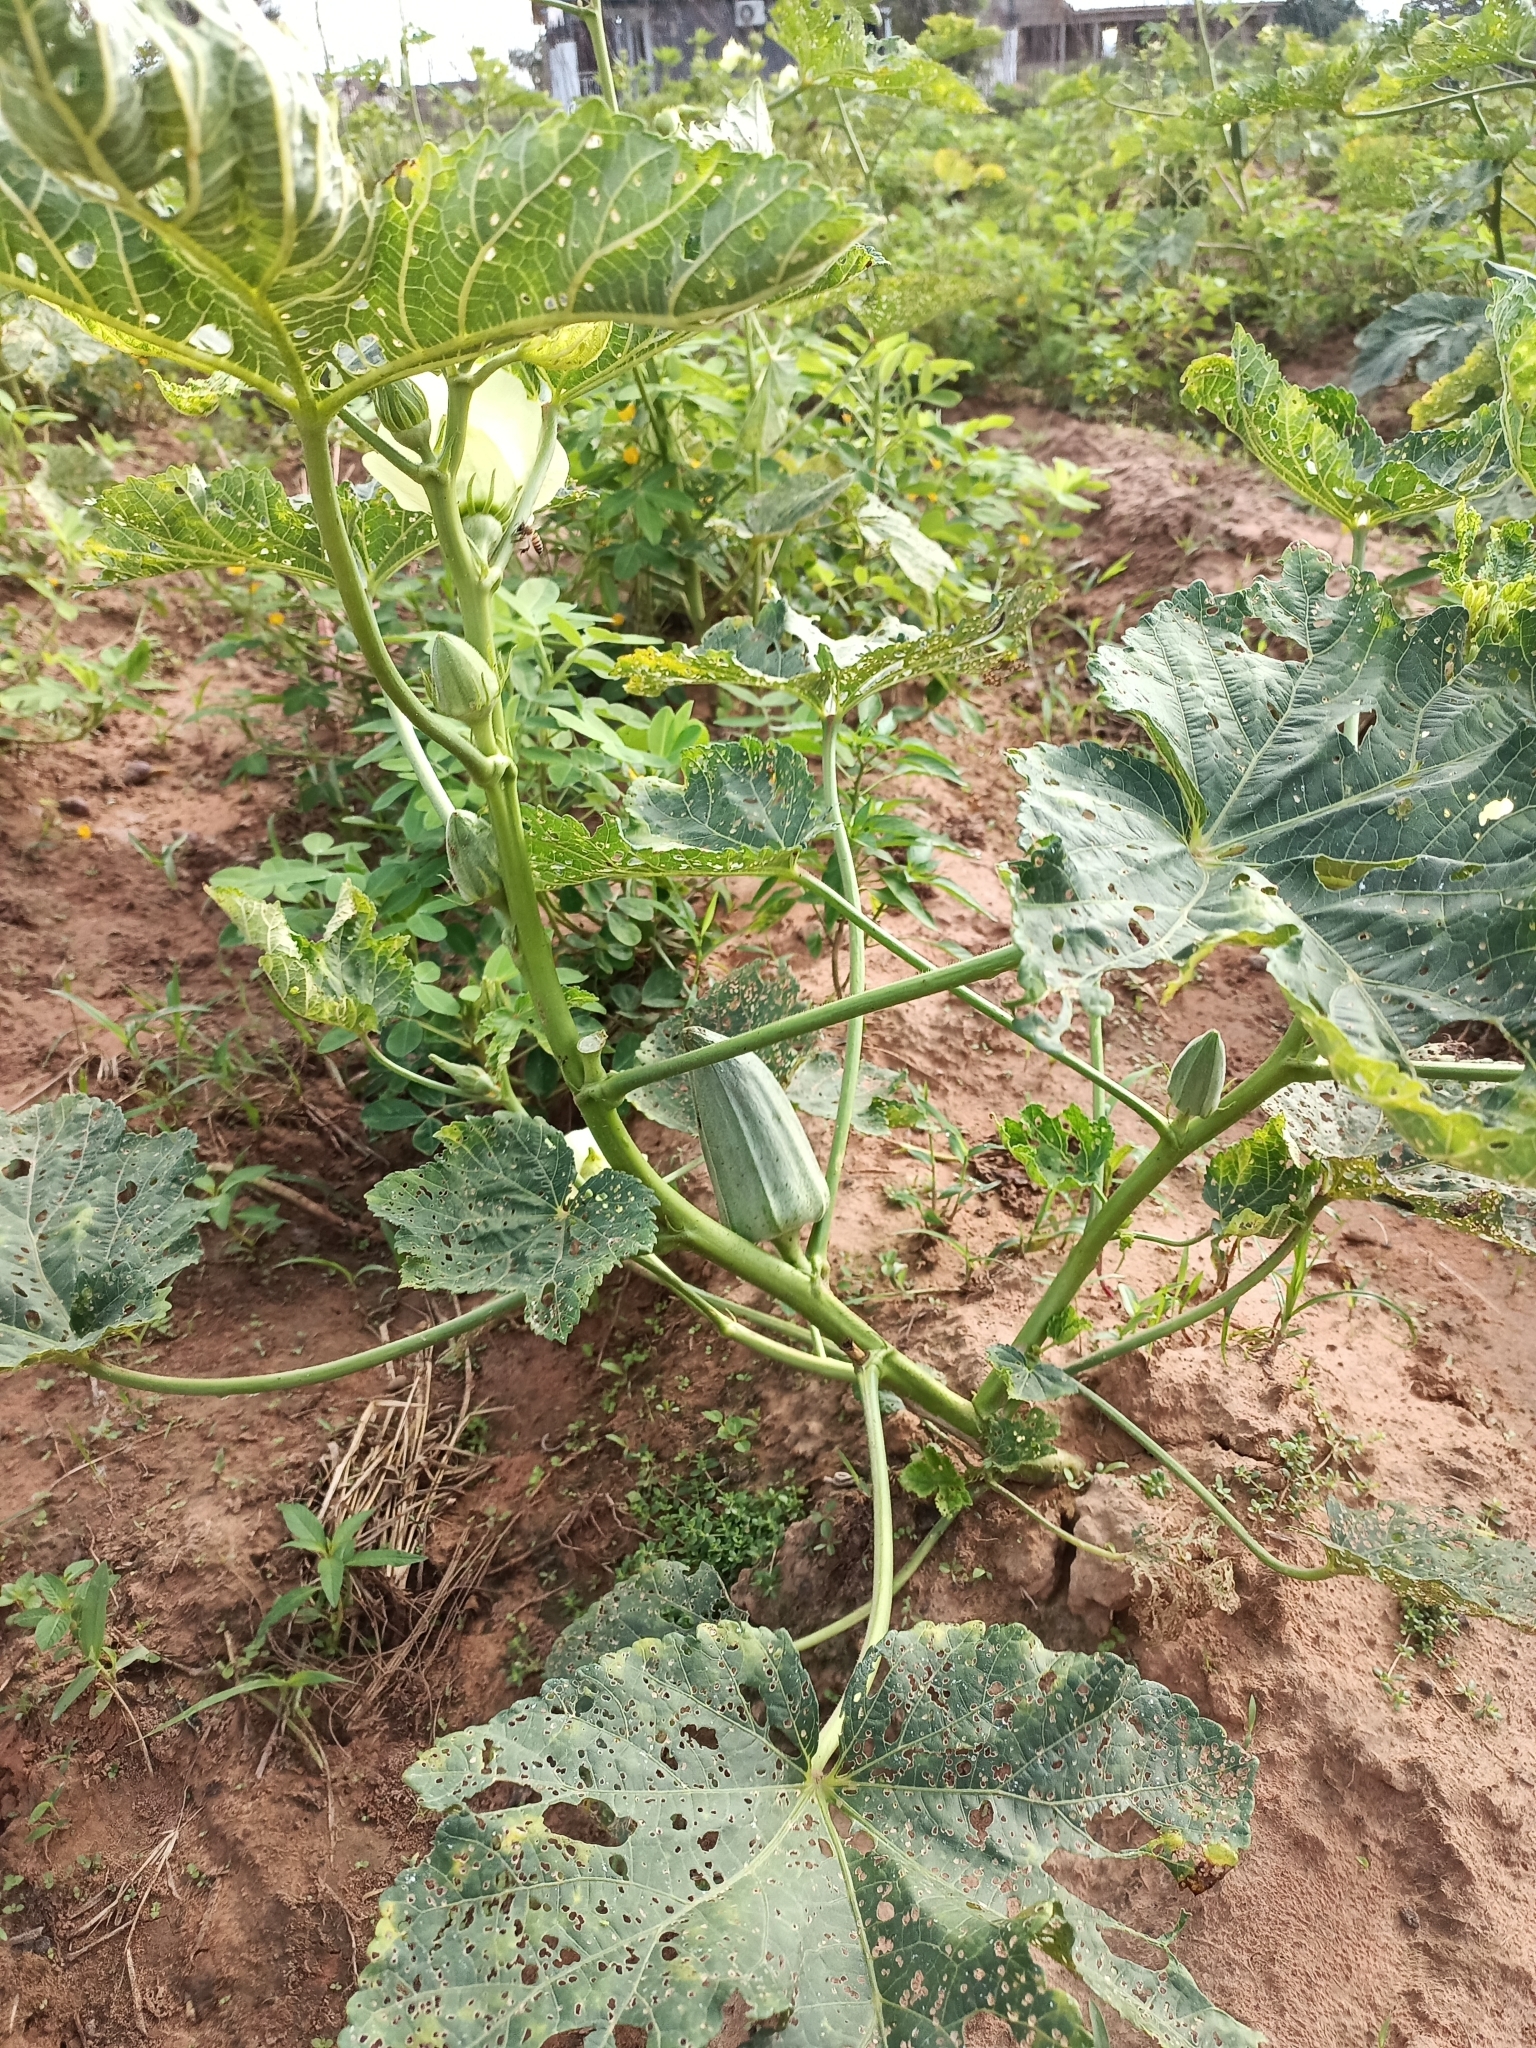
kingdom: Plantae
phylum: Tracheophyta
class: Magnoliopsida
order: Malvales
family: Malvaceae
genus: Abelmoschus
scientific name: Abelmoschus esculentus
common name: Okra
